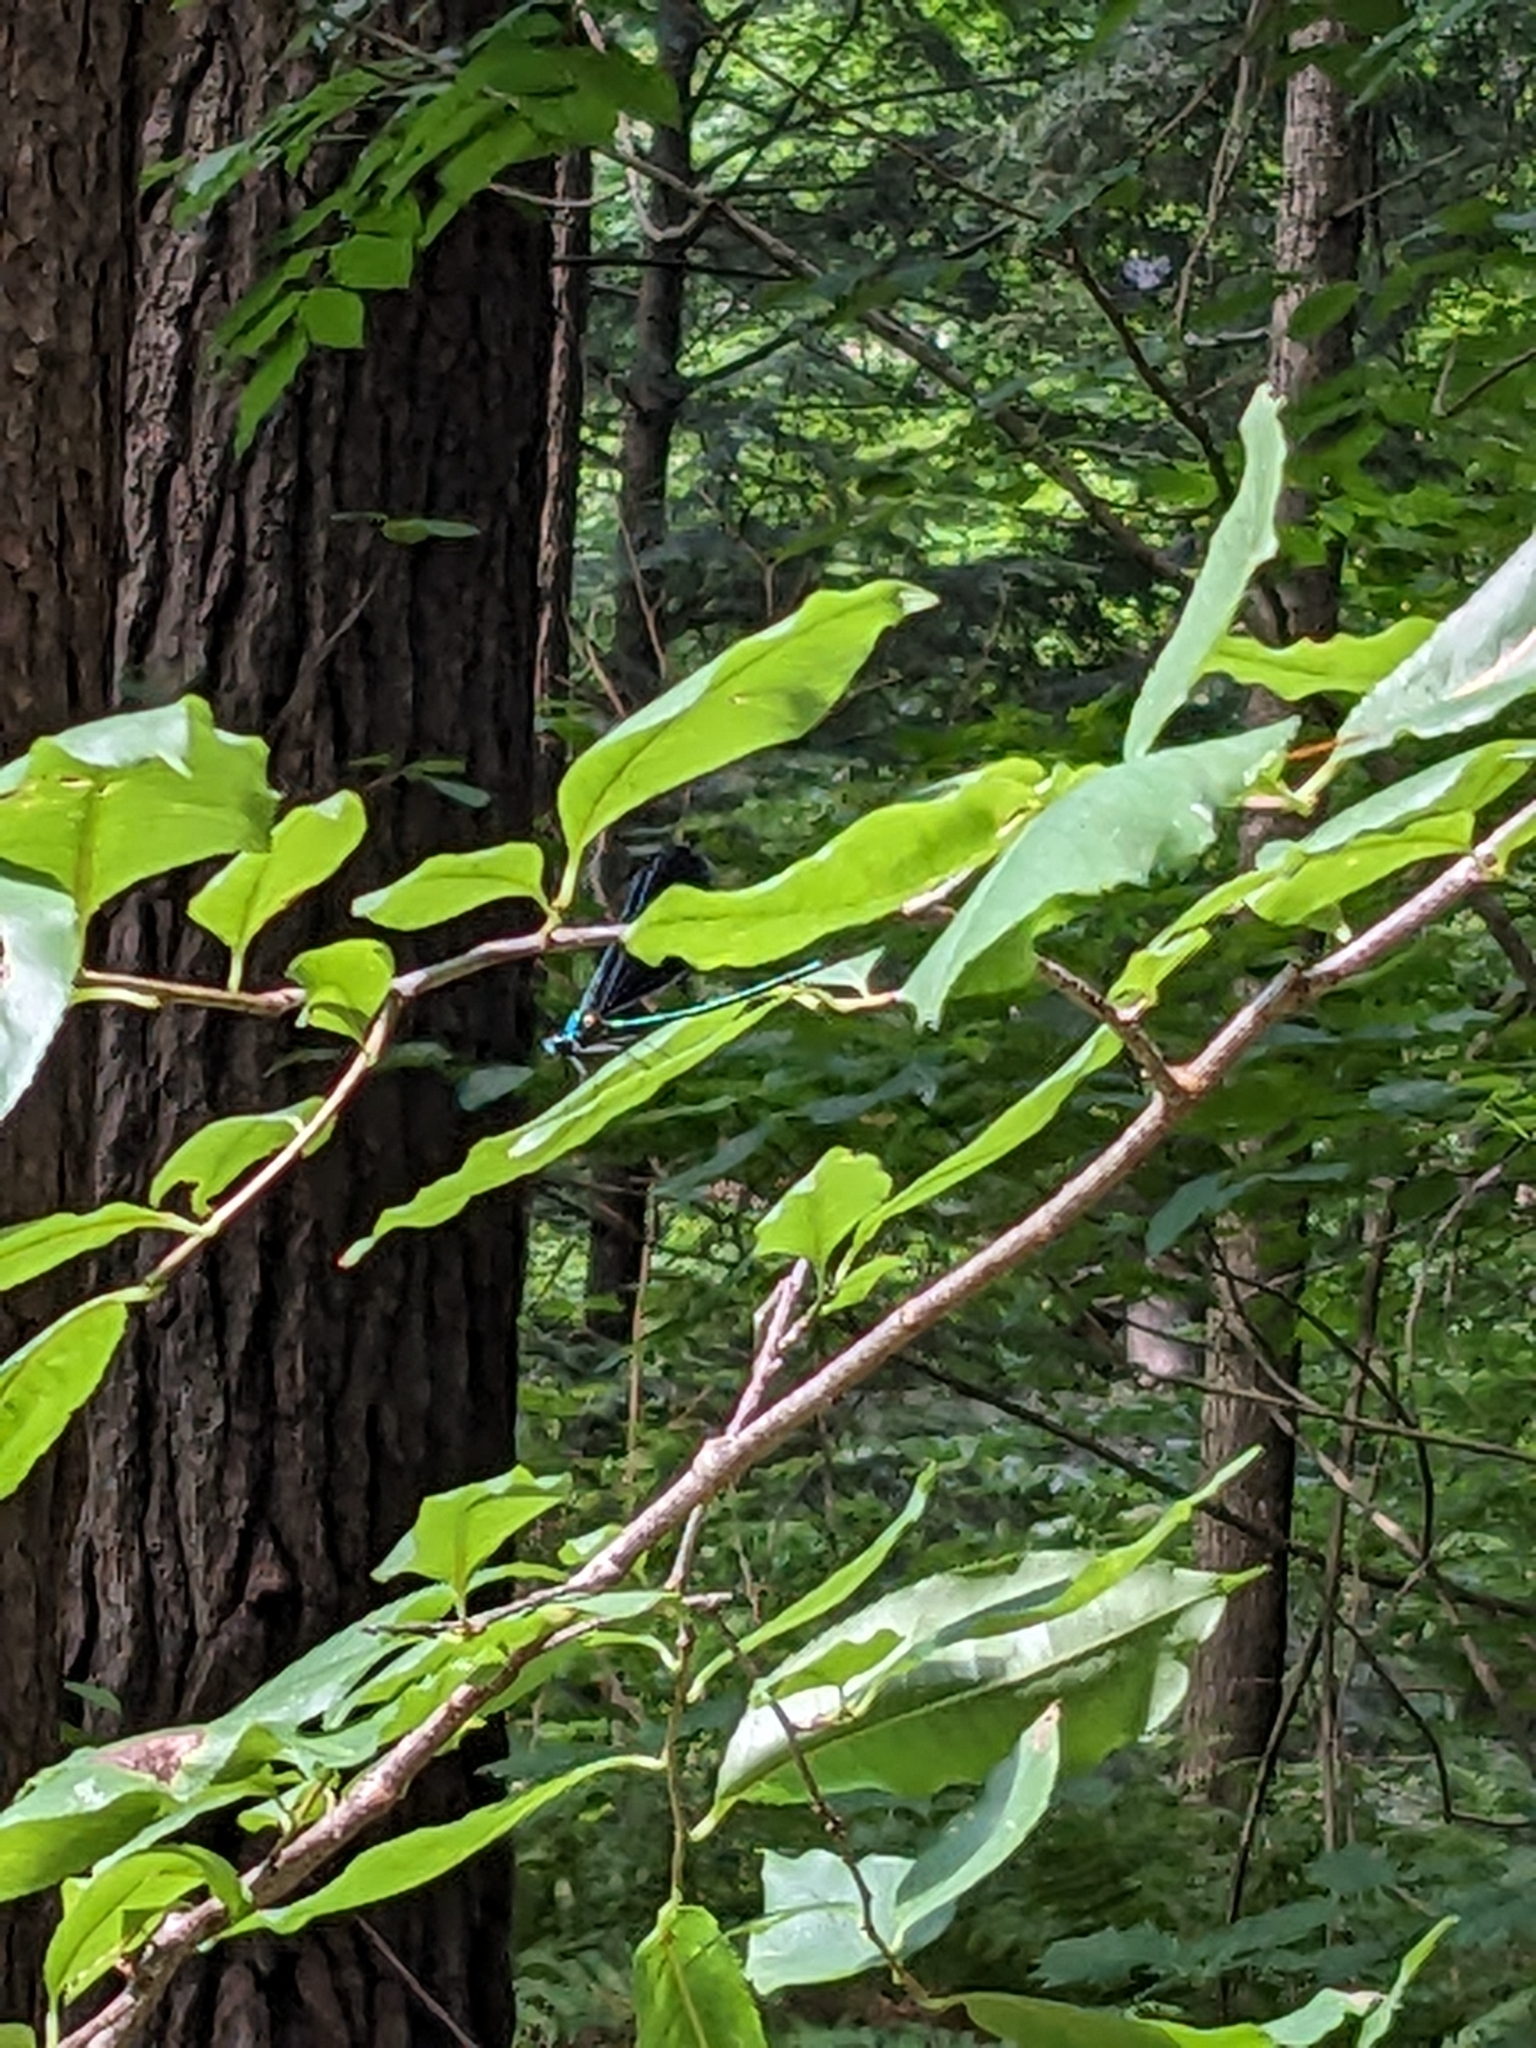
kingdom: Animalia
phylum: Arthropoda
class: Insecta
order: Odonata
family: Calopterygidae
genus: Calopteryx
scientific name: Calopteryx maculata
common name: Ebony jewelwing
